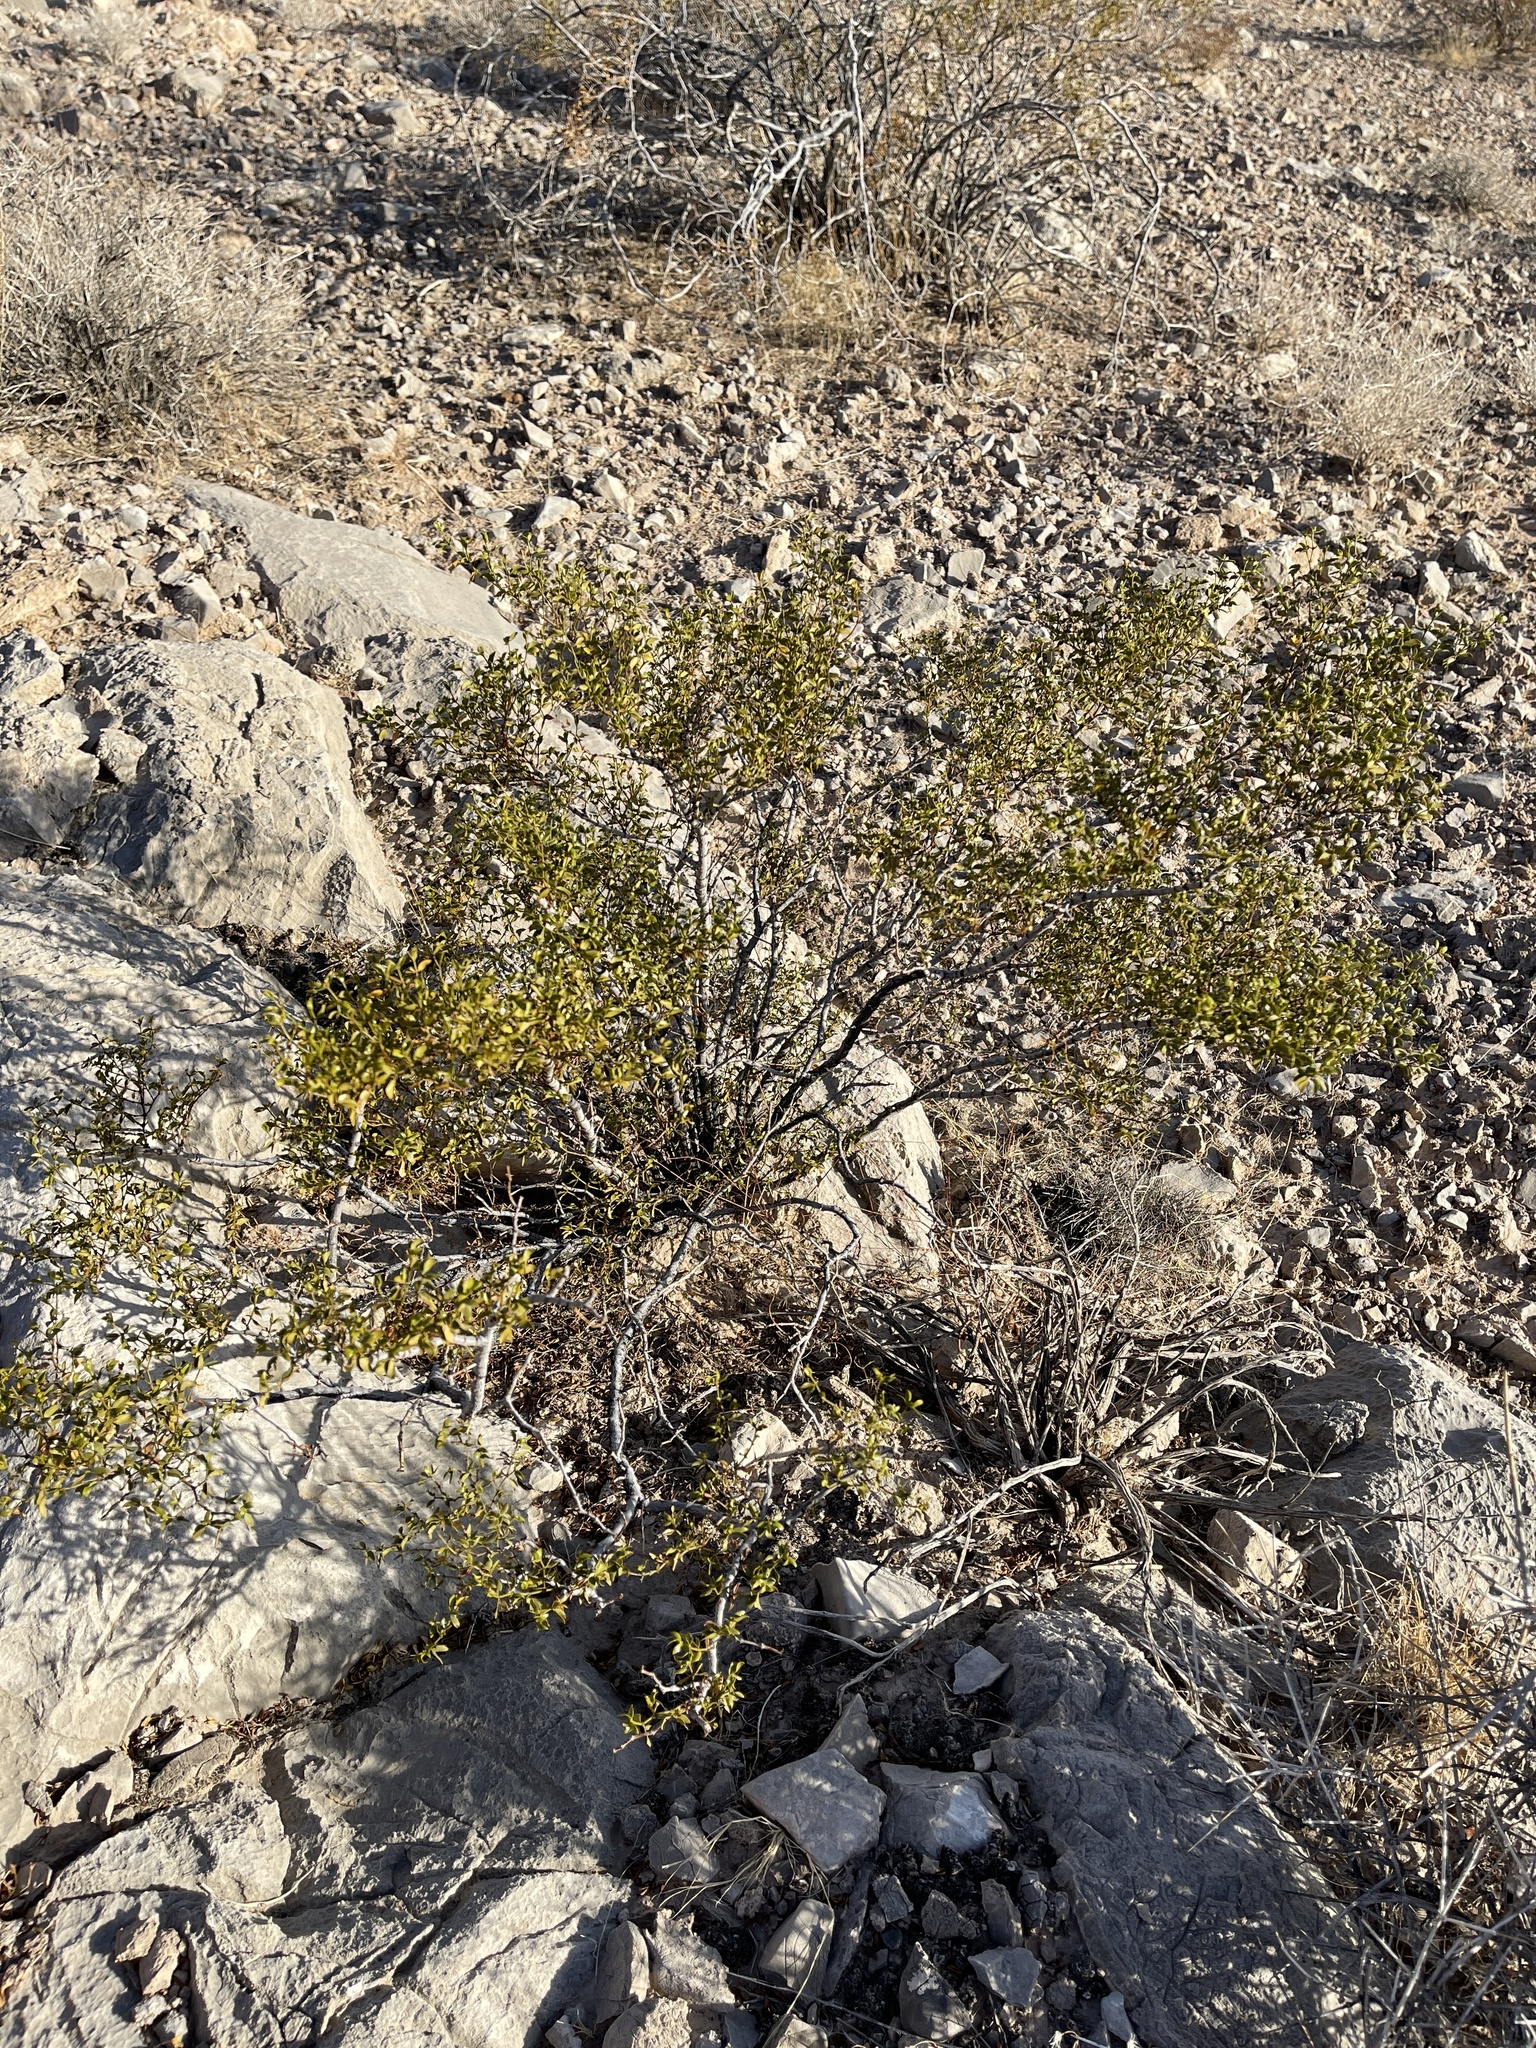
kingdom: Plantae
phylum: Tracheophyta
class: Magnoliopsida
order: Zygophyllales
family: Zygophyllaceae
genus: Larrea
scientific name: Larrea tridentata
